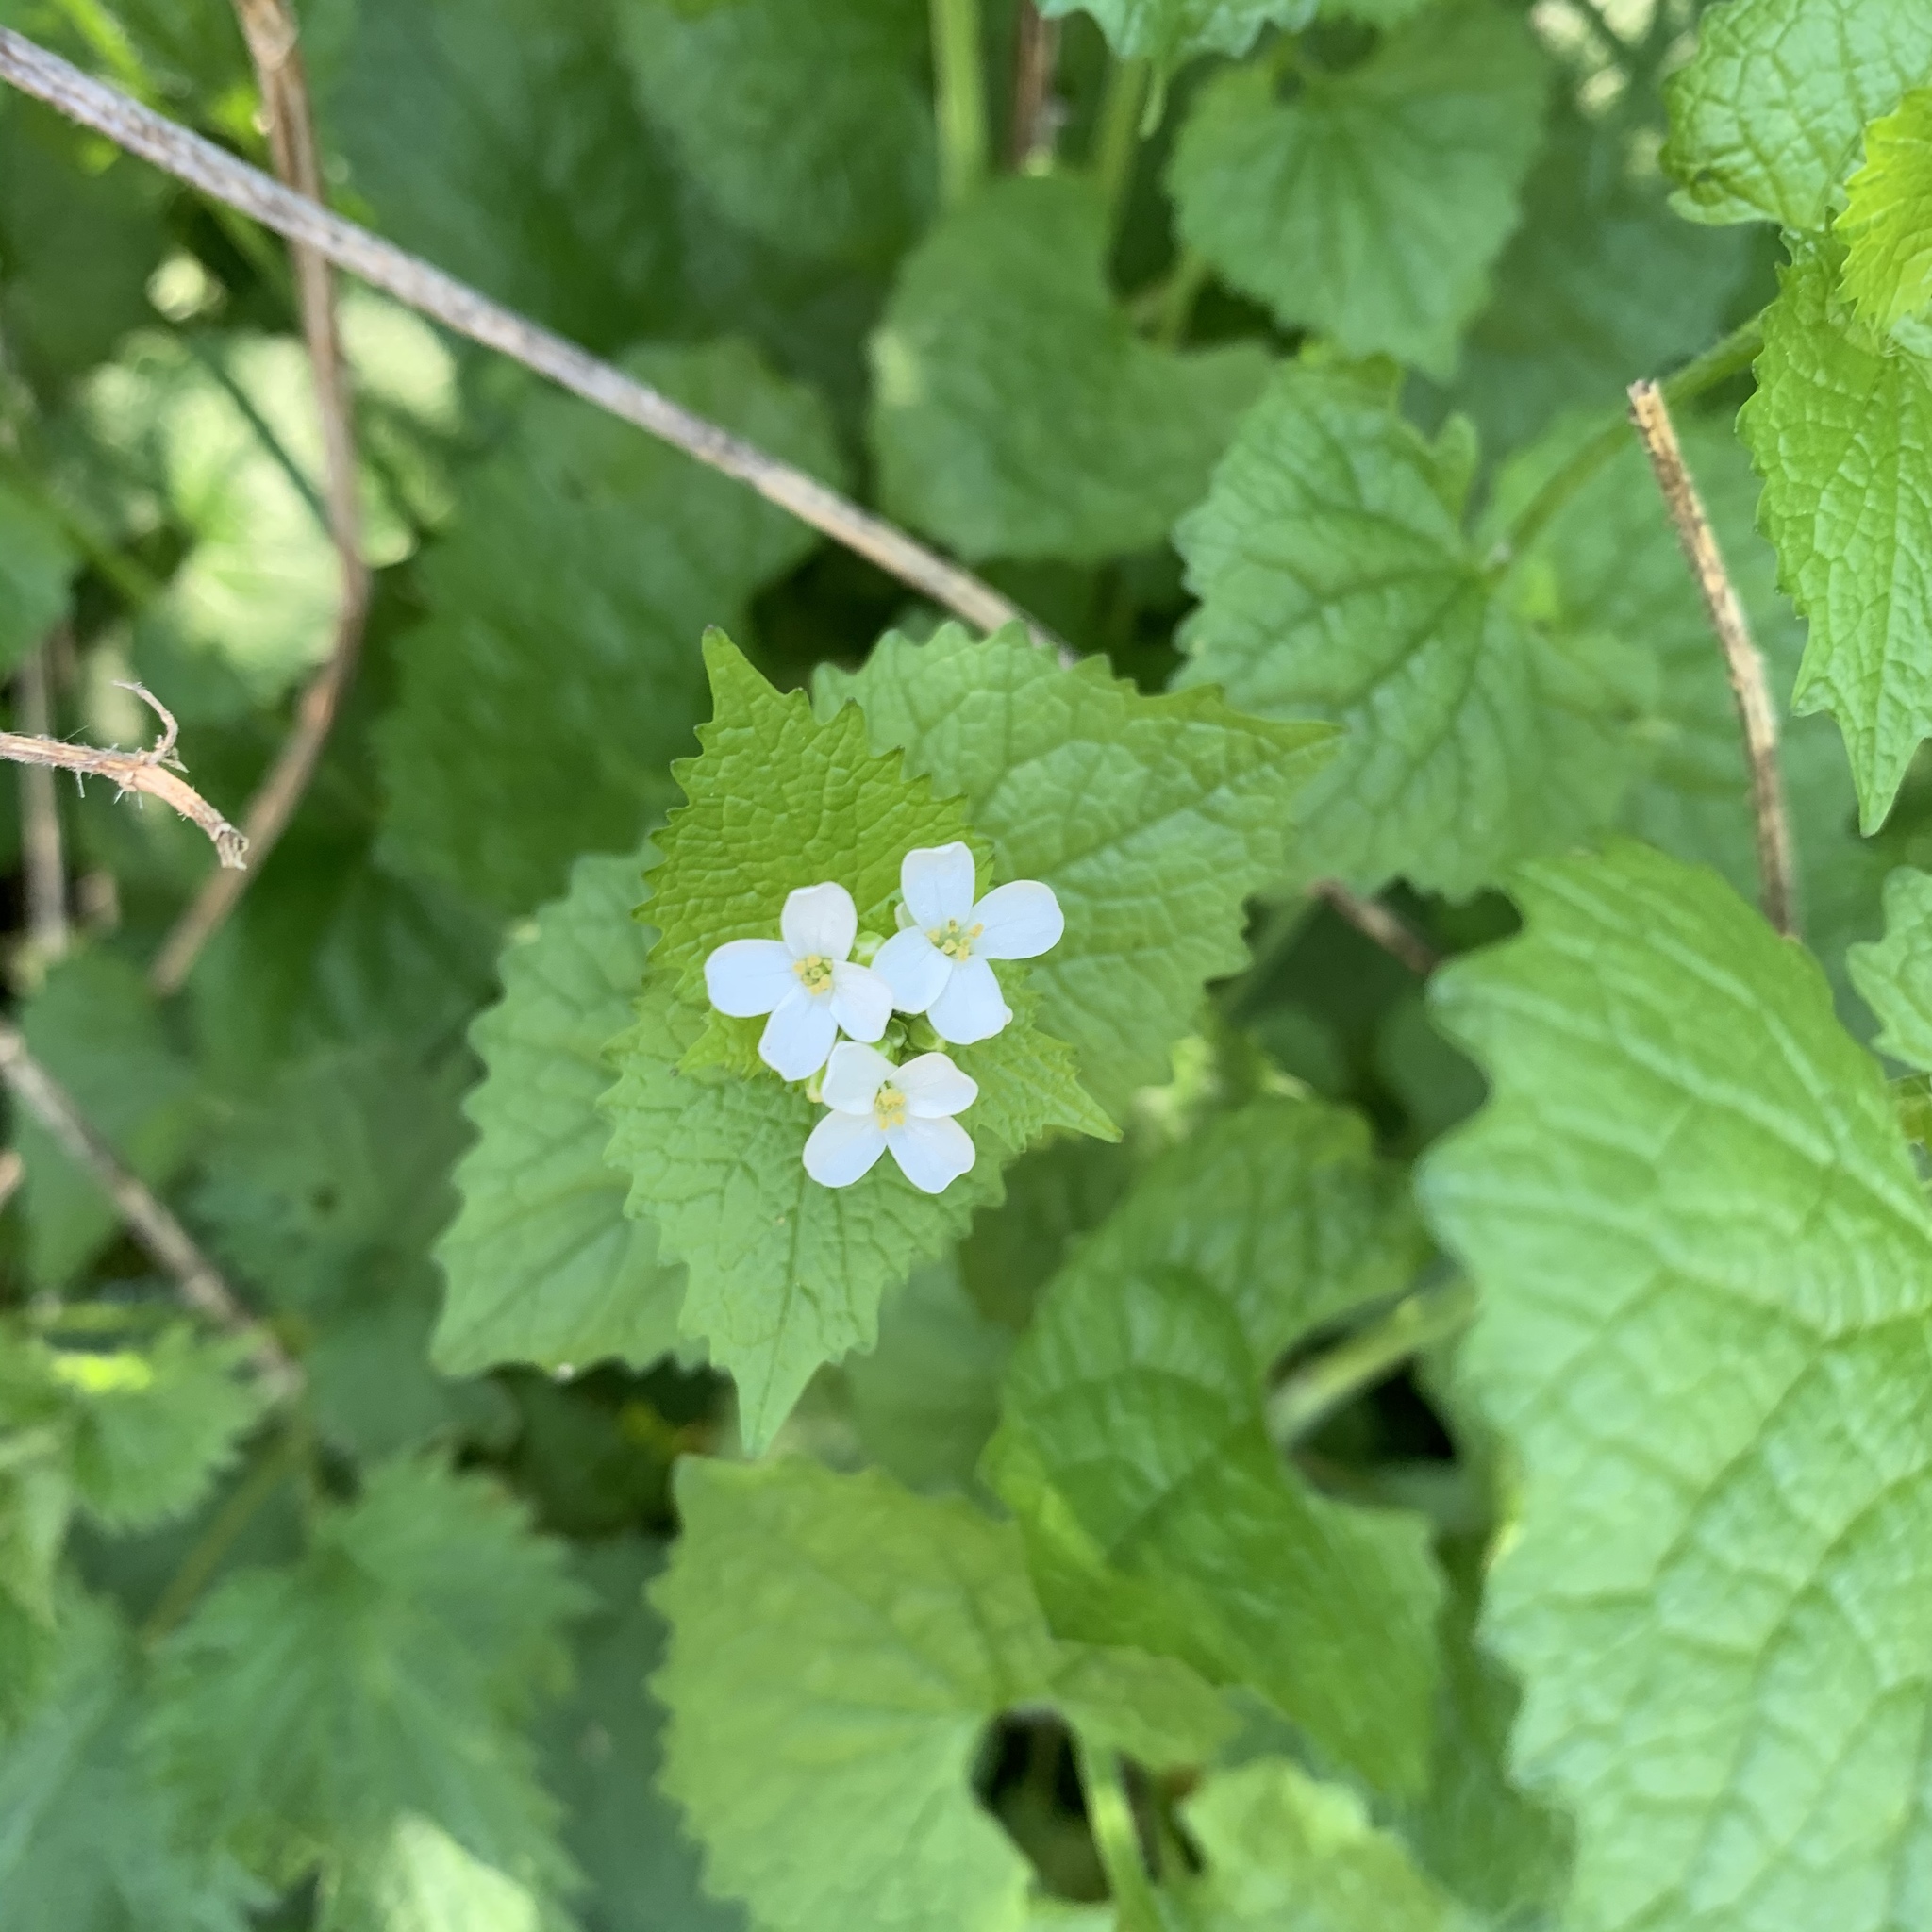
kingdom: Plantae
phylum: Tracheophyta
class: Magnoliopsida
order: Brassicales
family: Brassicaceae
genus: Alliaria
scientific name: Alliaria petiolata
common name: Garlic mustard
